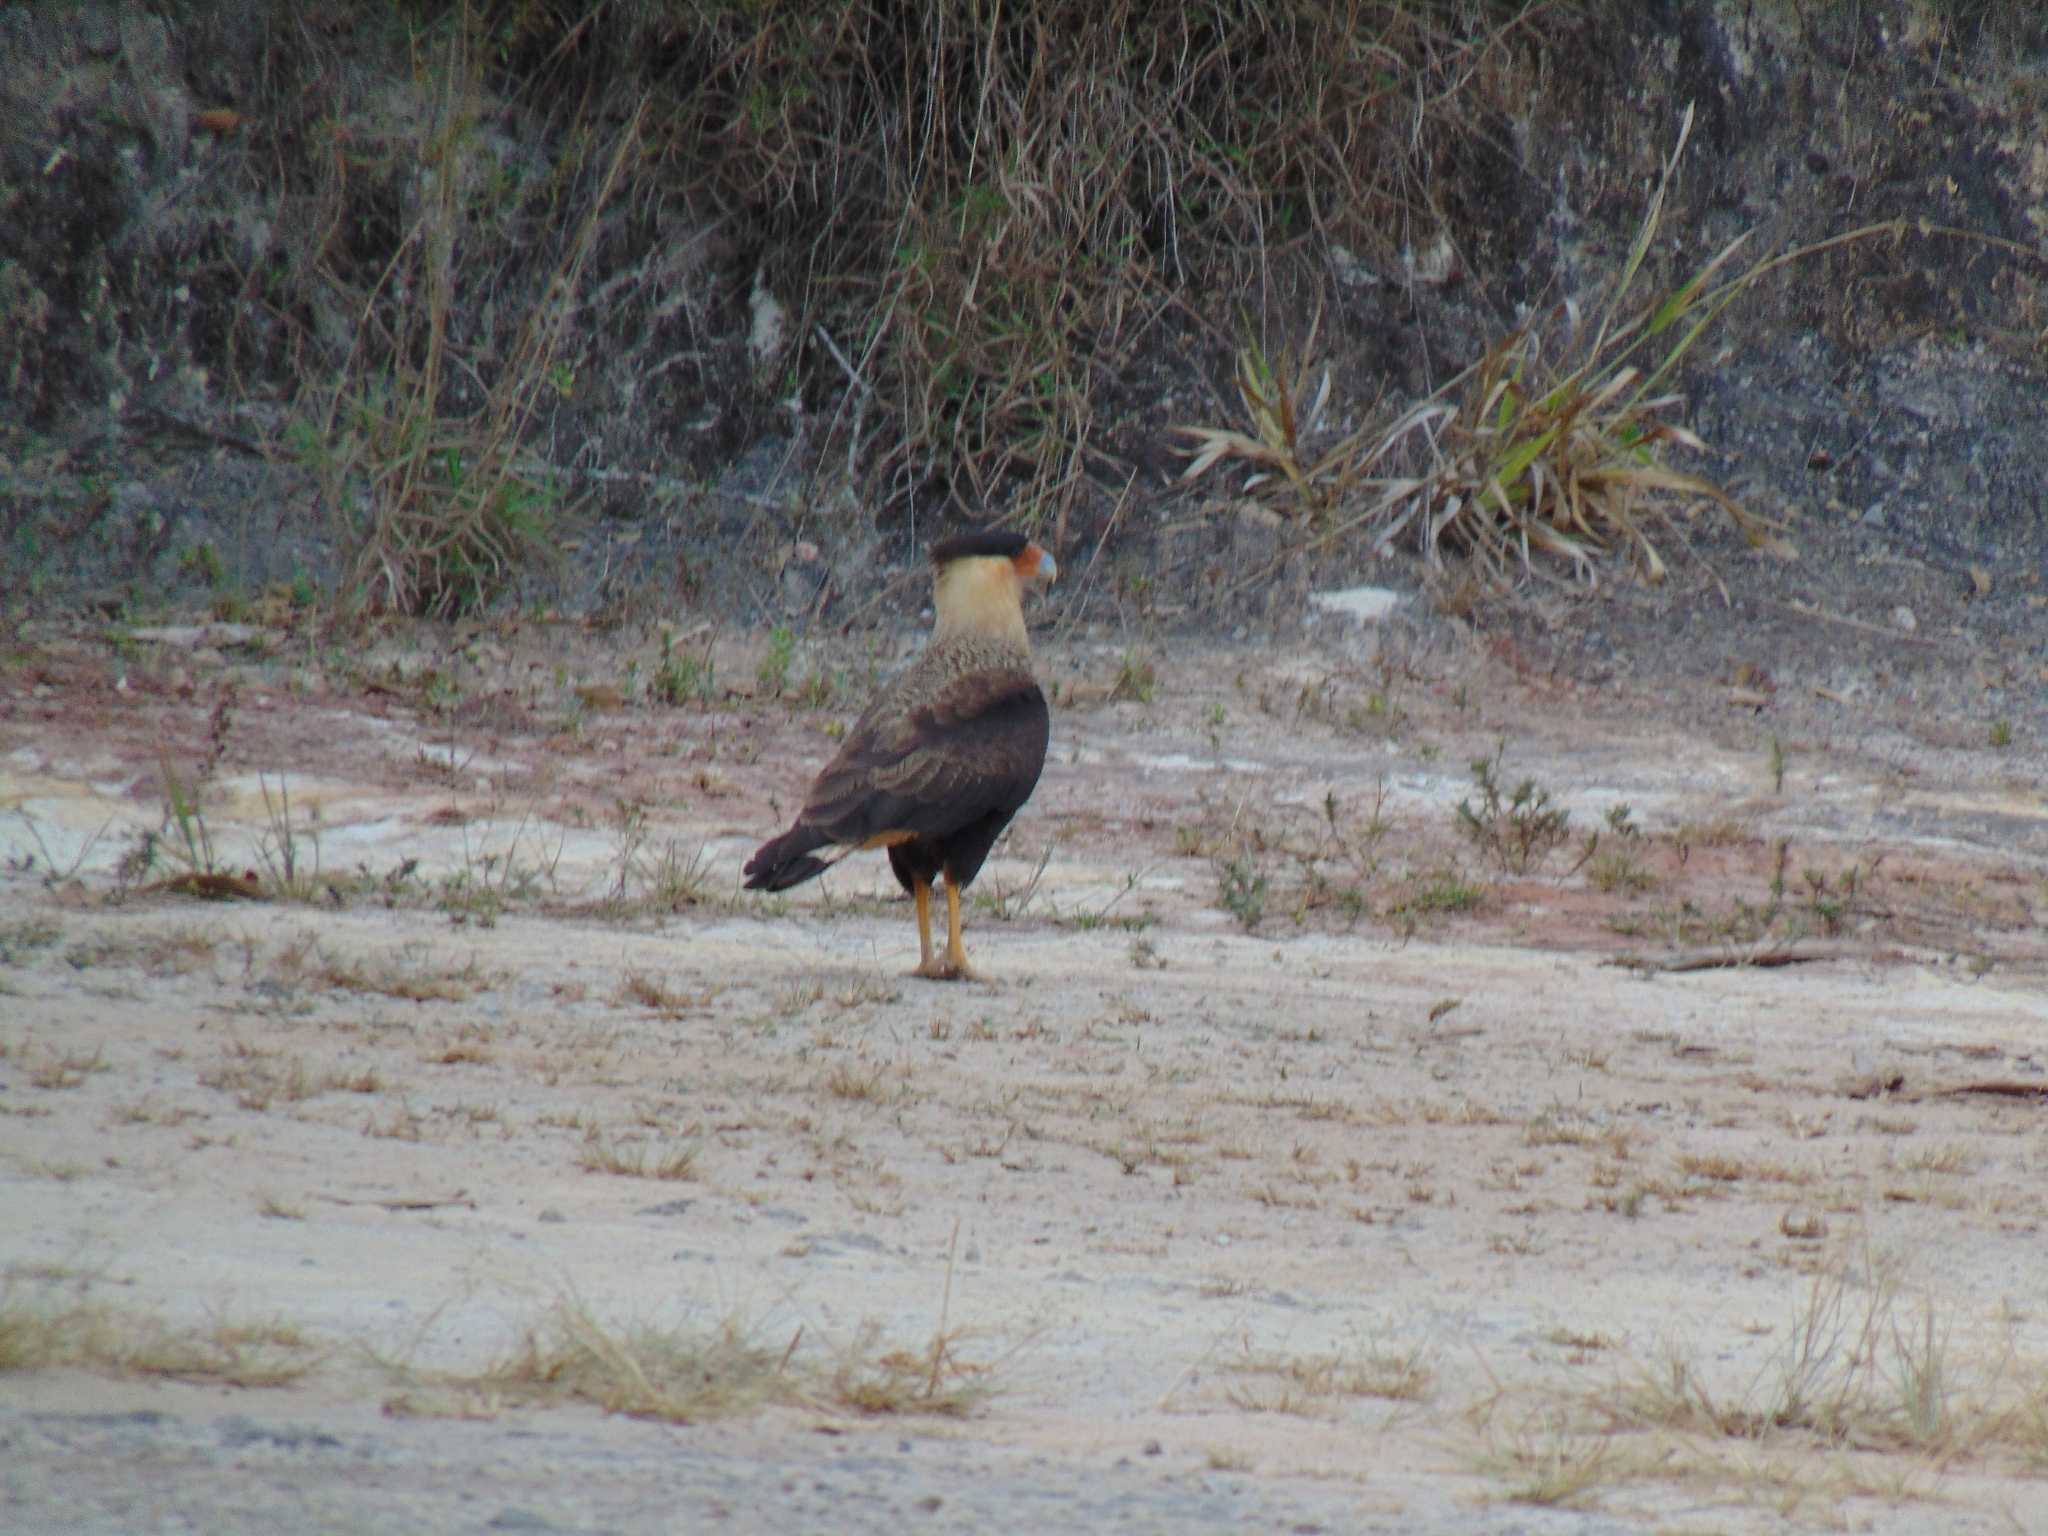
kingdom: Animalia
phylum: Chordata
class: Aves
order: Falconiformes
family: Falconidae
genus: Caracara
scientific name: Caracara plancus
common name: Southern caracara
